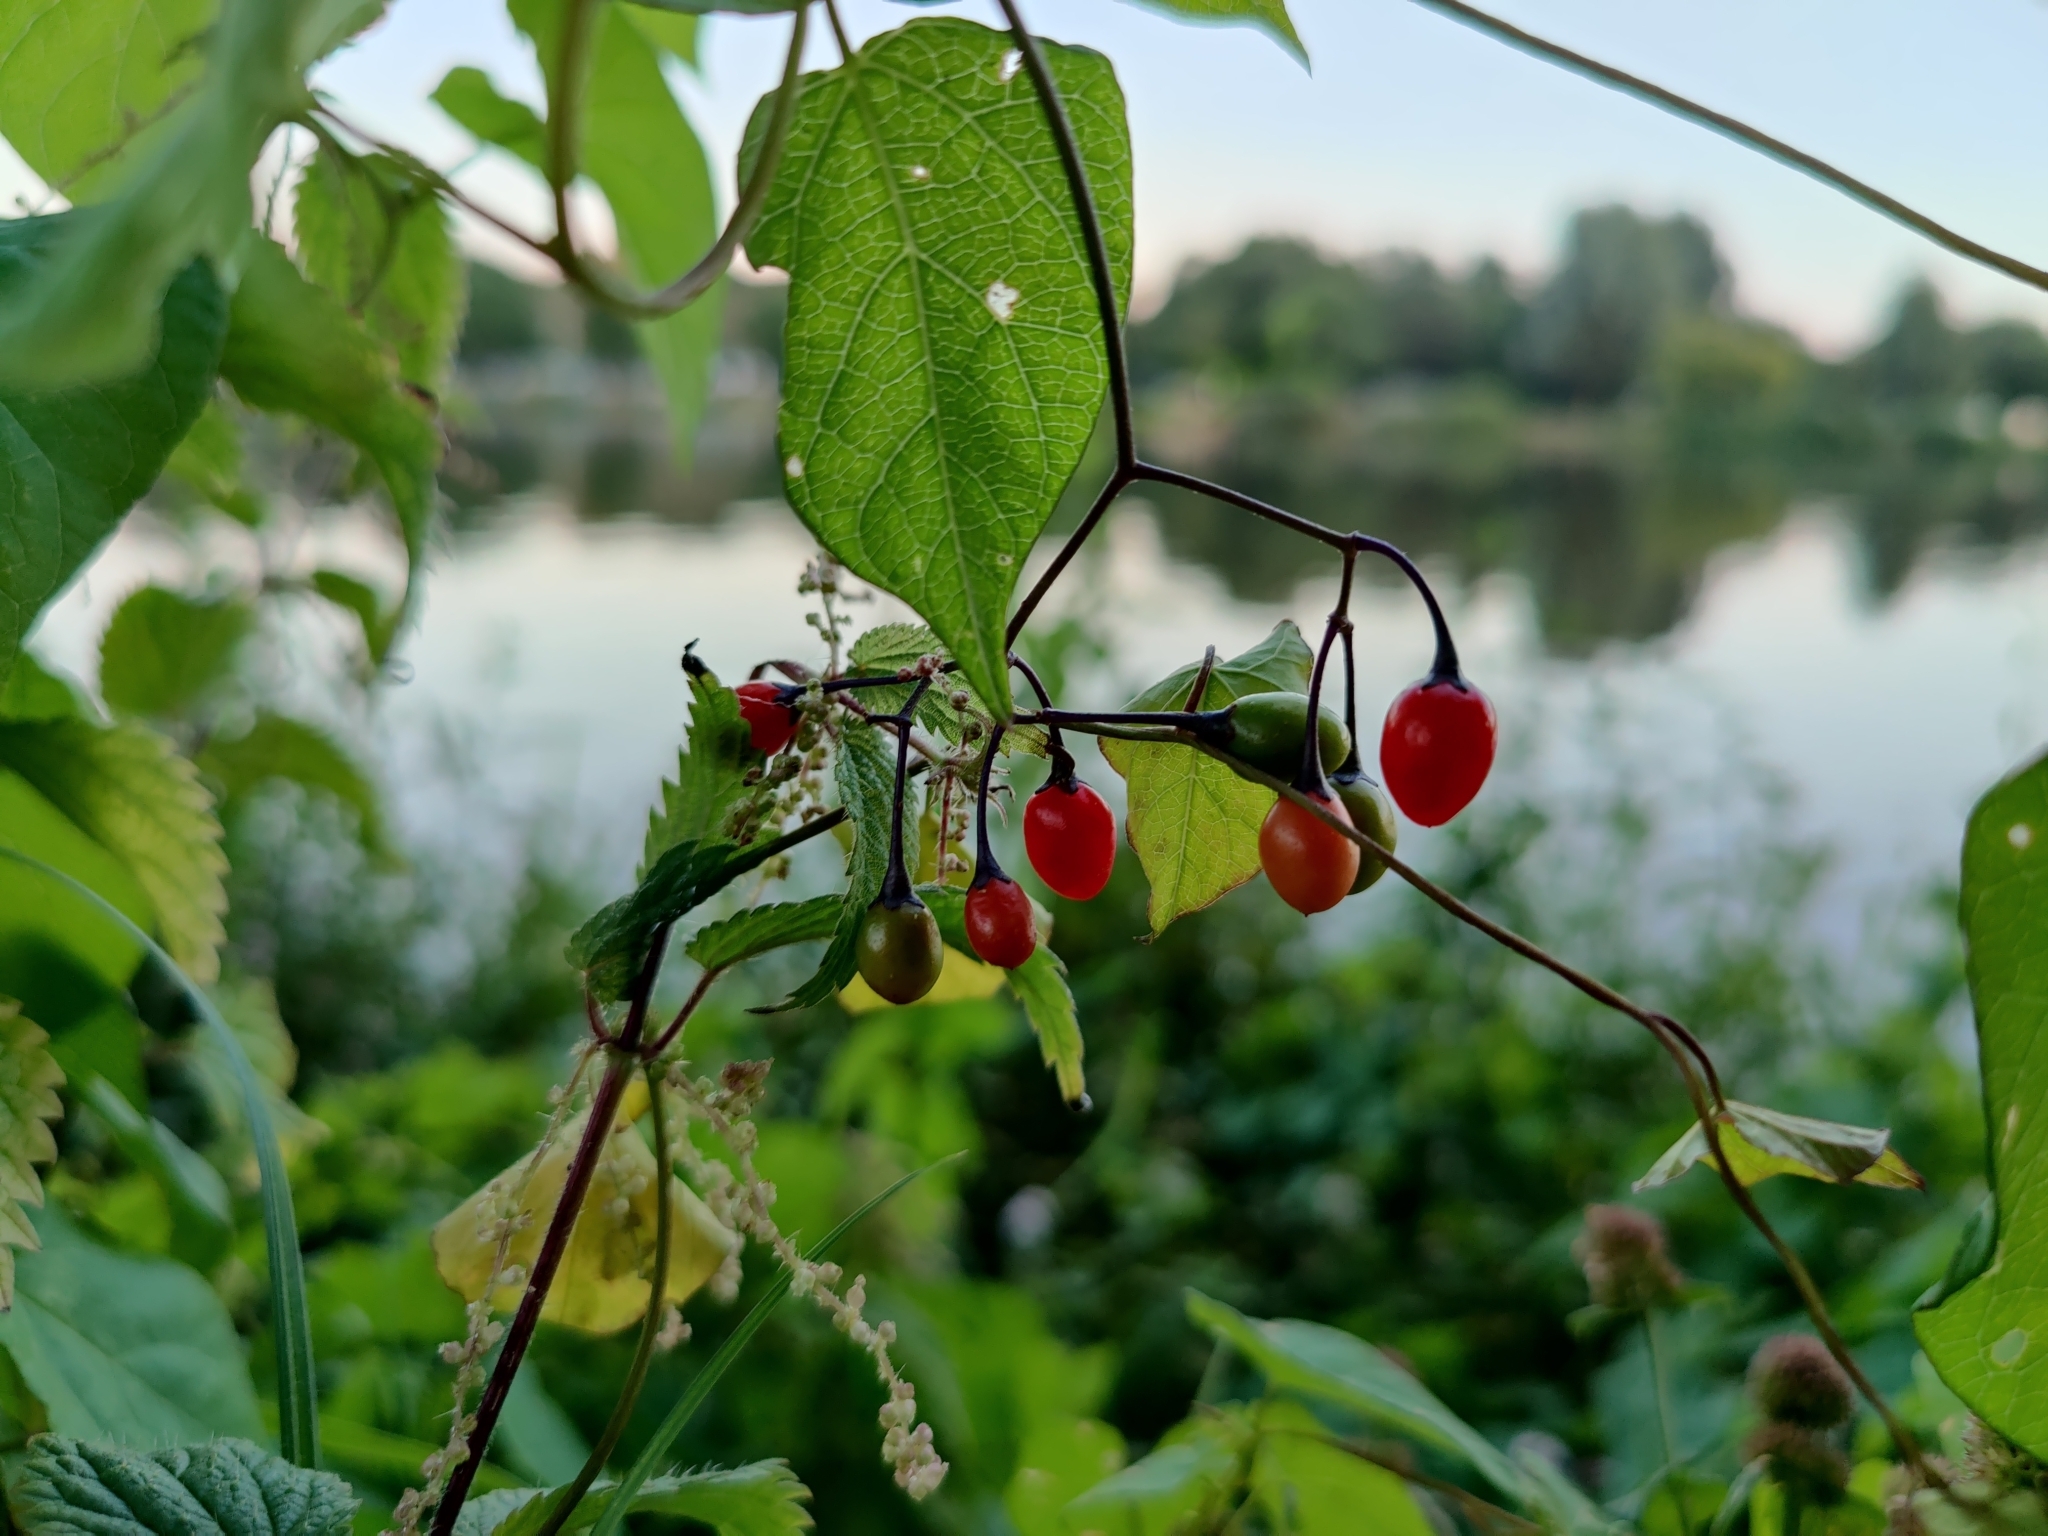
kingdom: Plantae
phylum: Tracheophyta
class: Magnoliopsida
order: Solanales
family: Solanaceae
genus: Solanum
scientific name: Solanum dulcamara
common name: Climbing nightshade
